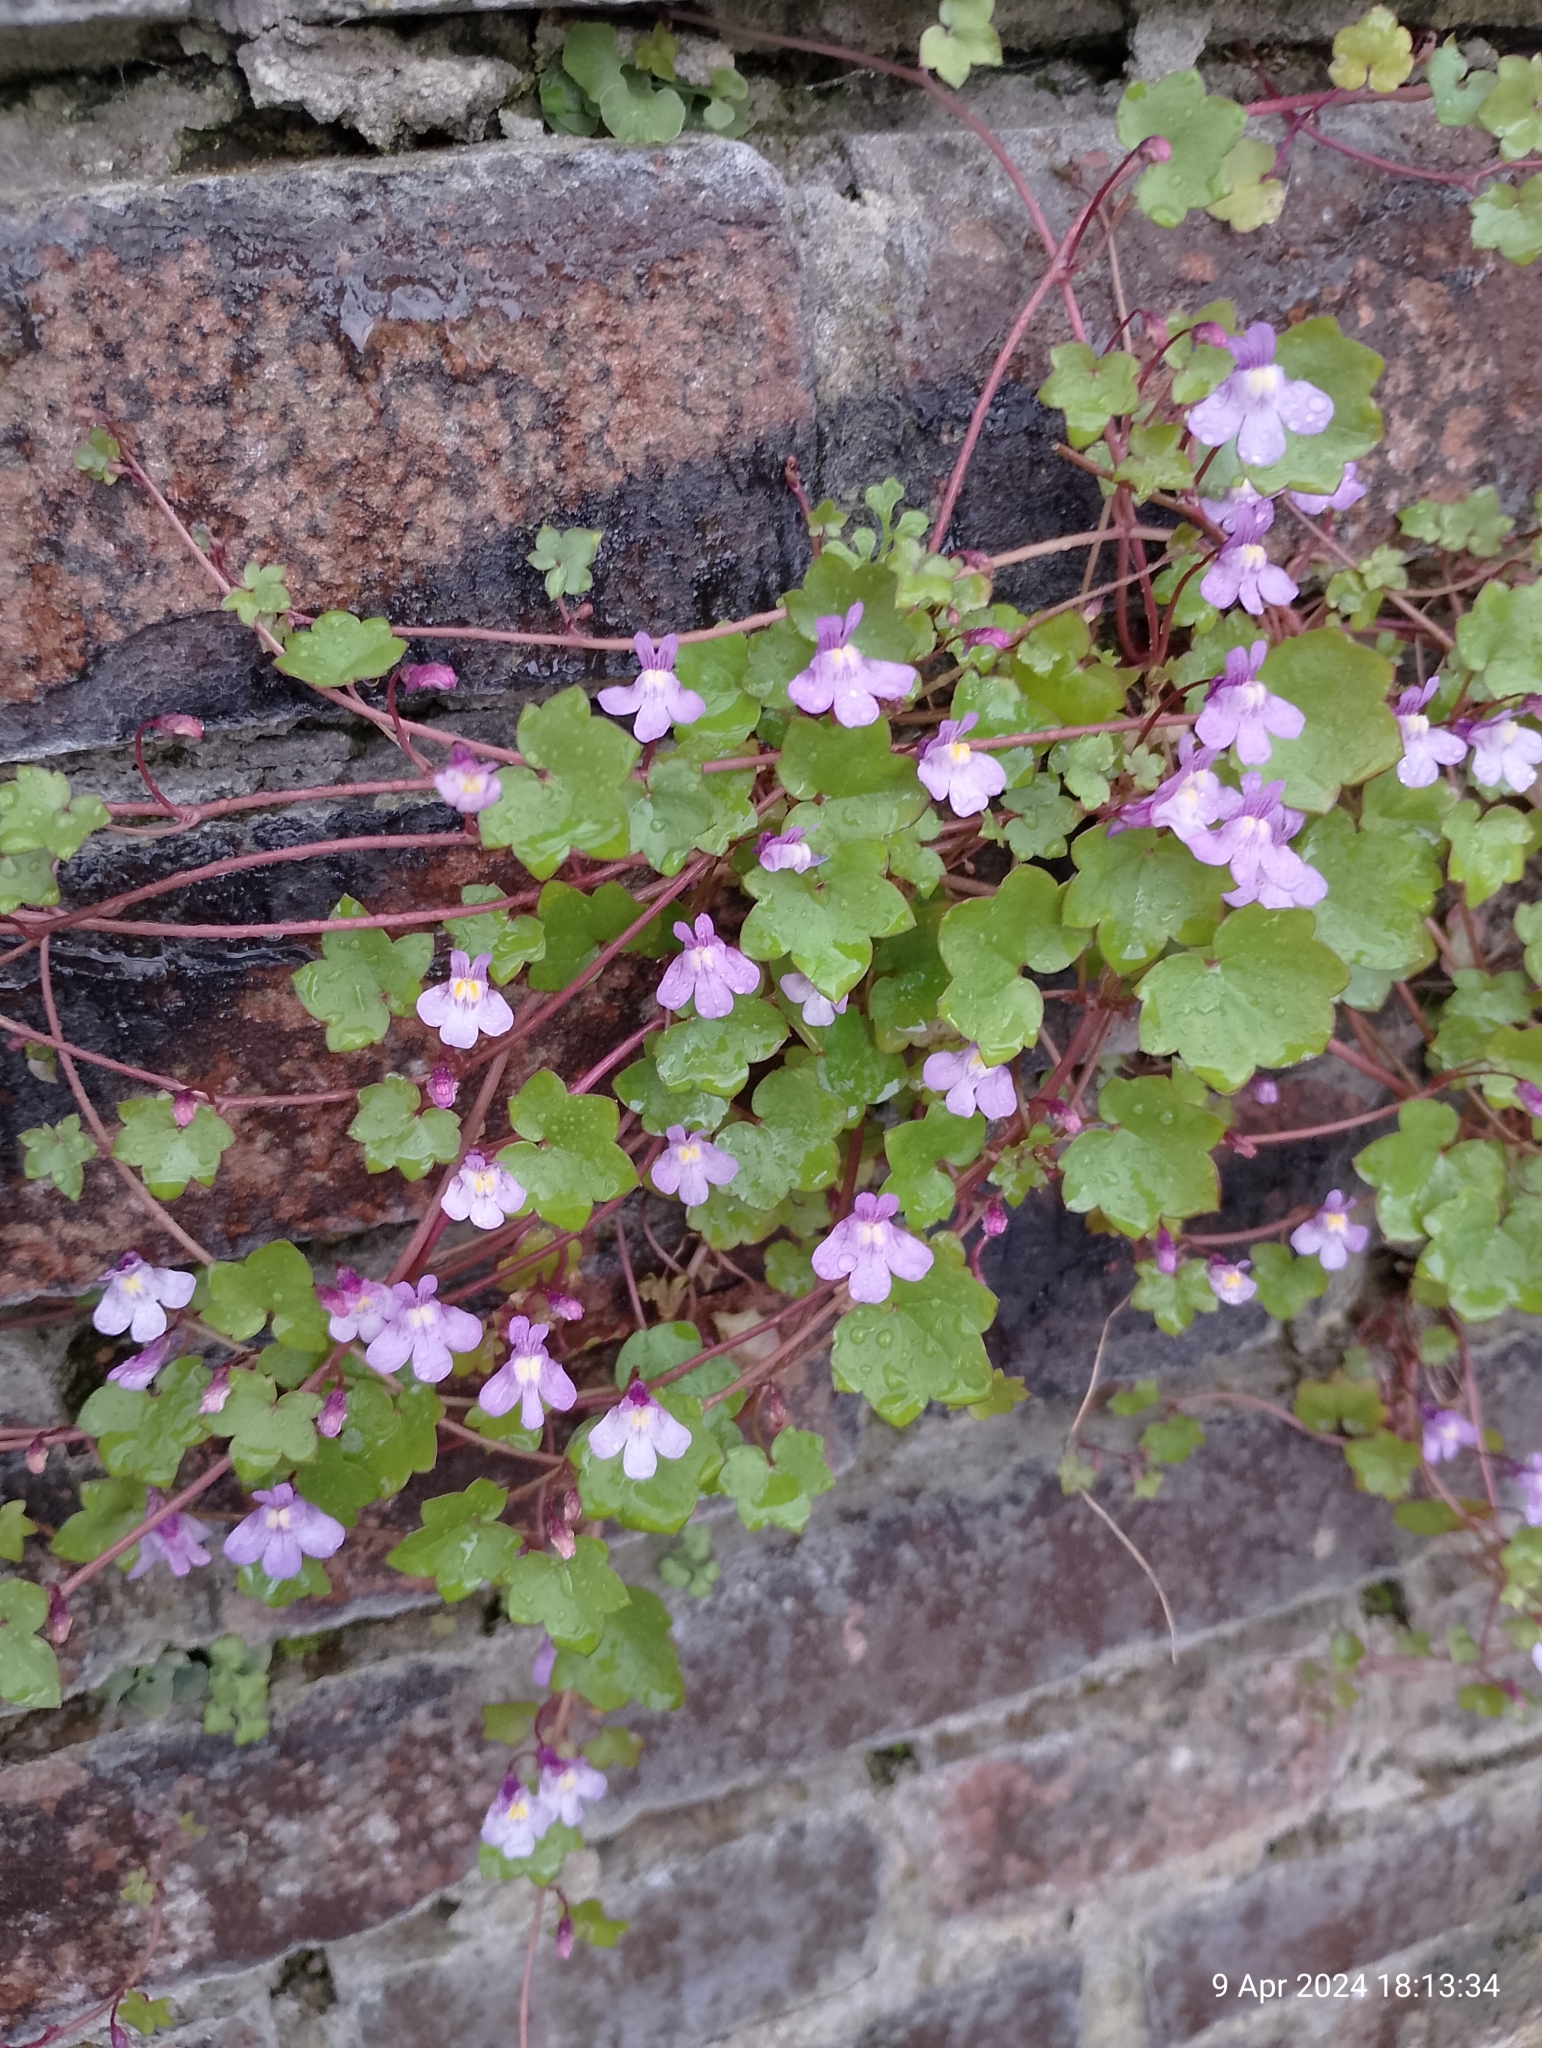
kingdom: Plantae
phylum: Tracheophyta
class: Magnoliopsida
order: Lamiales
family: Plantaginaceae
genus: Cymbalaria
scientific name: Cymbalaria muralis
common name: Ivy-leaved toadflax
